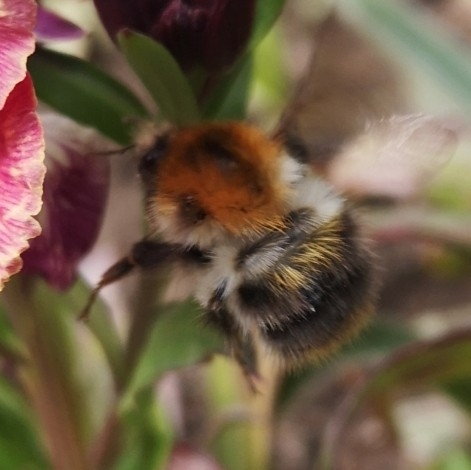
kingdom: Animalia
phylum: Arthropoda
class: Insecta
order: Hymenoptera
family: Apidae
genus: Bombus
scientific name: Bombus pascuorum
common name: Common carder bee
